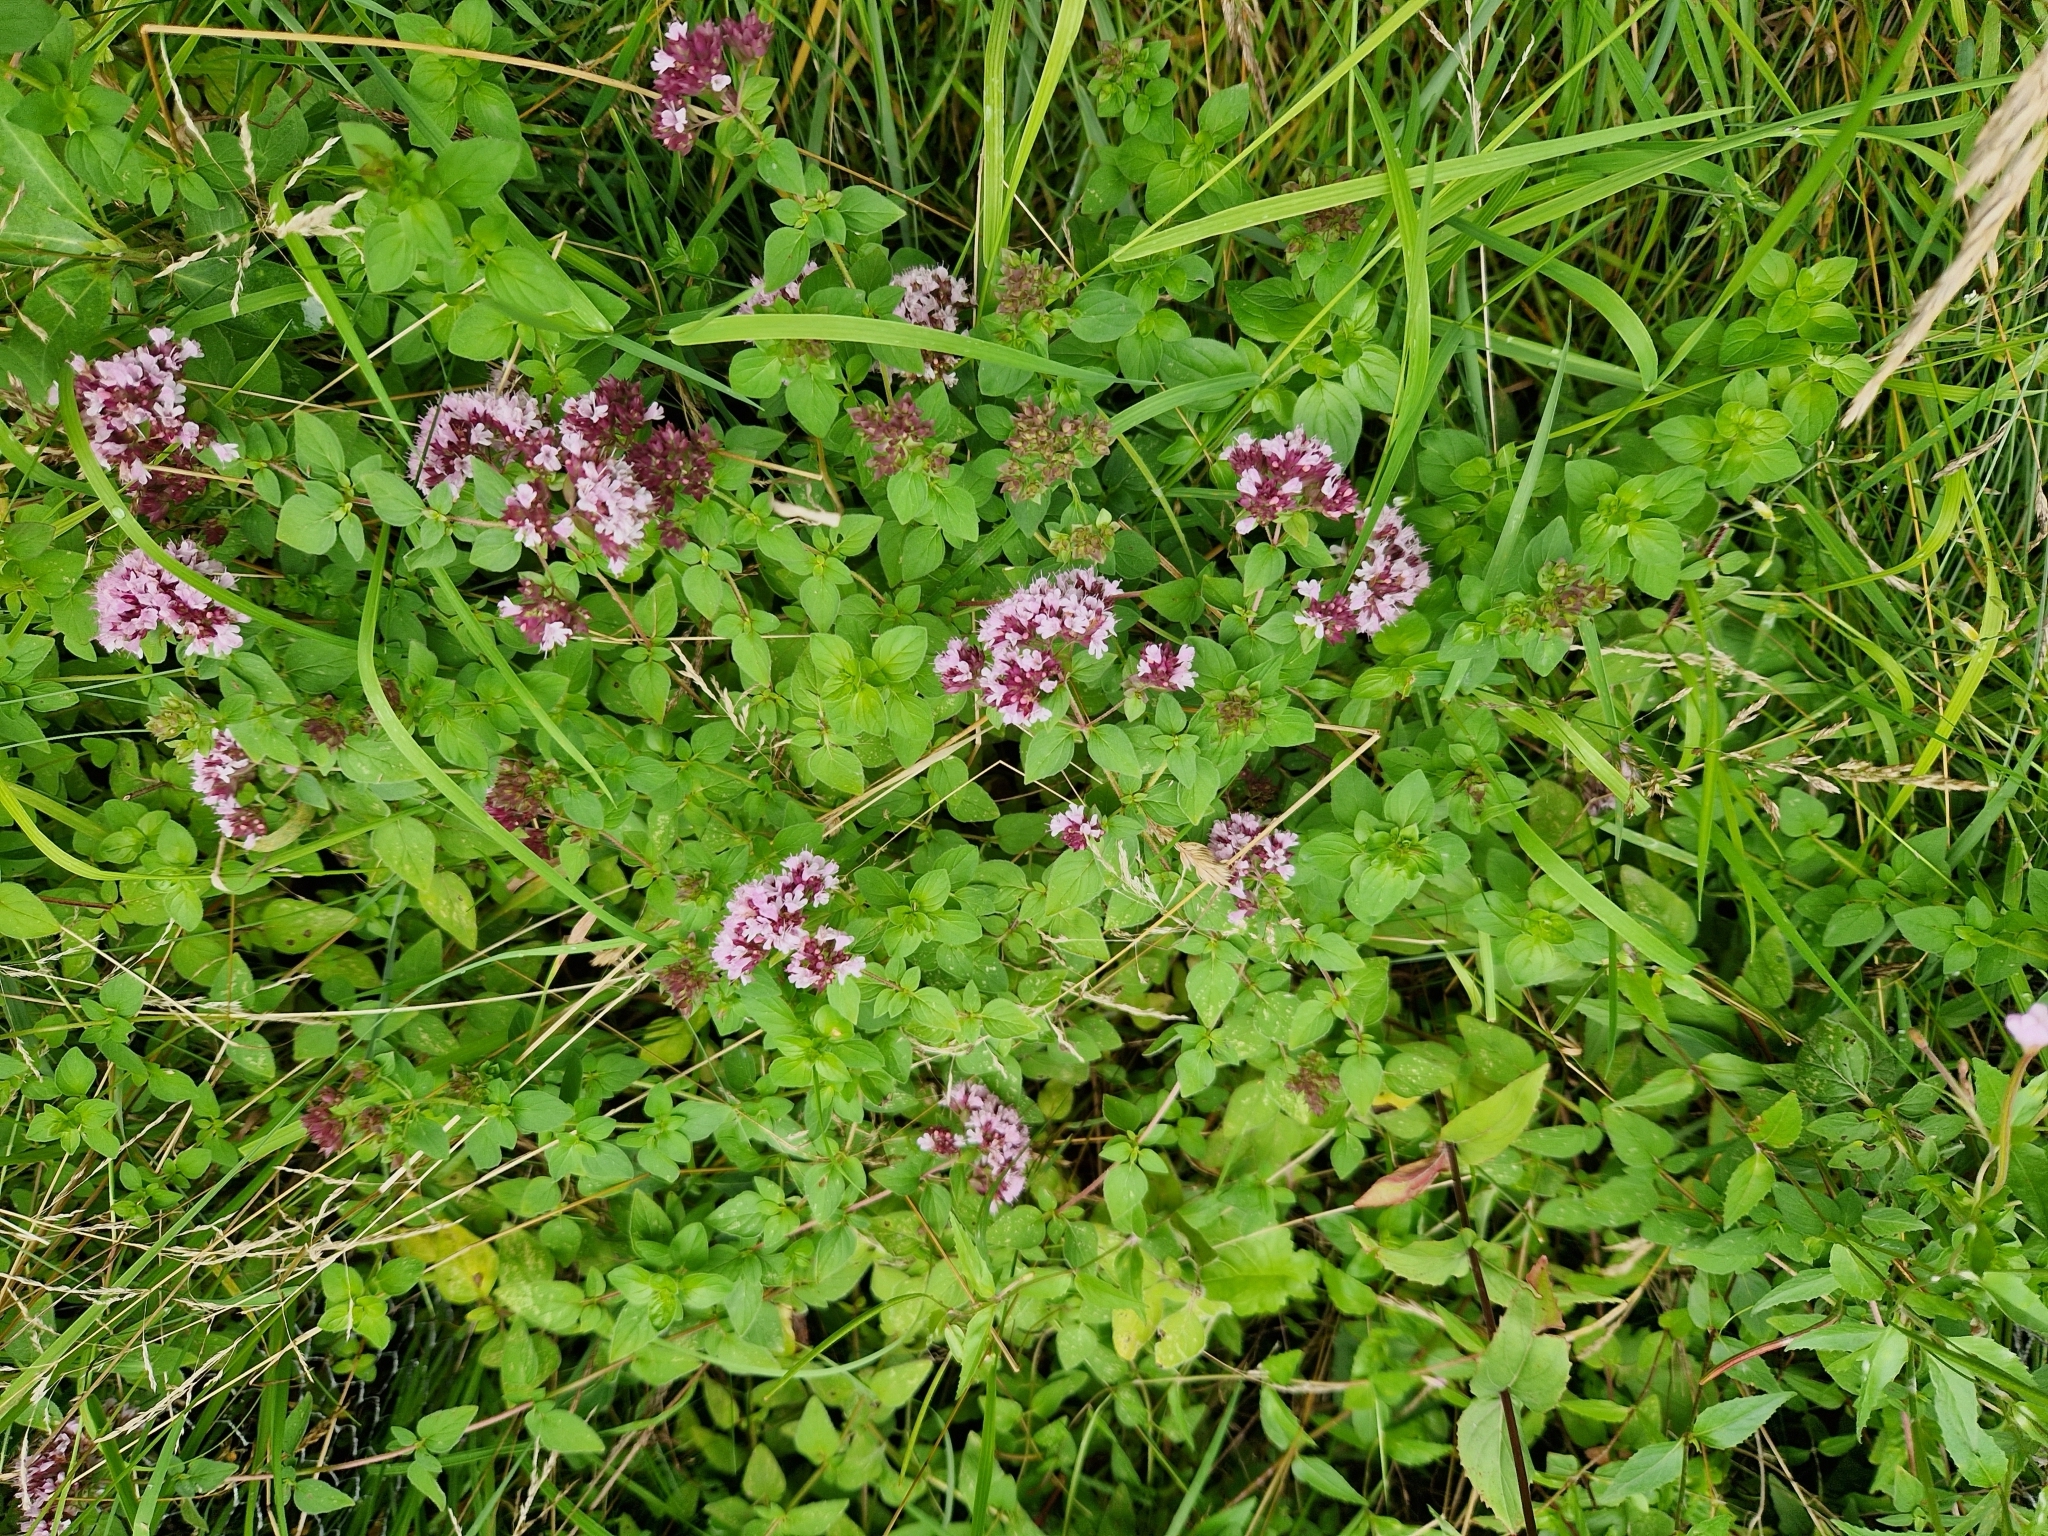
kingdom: Plantae
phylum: Tracheophyta
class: Magnoliopsida
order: Lamiales
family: Lamiaceae
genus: Origanum
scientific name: Origanum vulgare
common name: Wild marjoram
